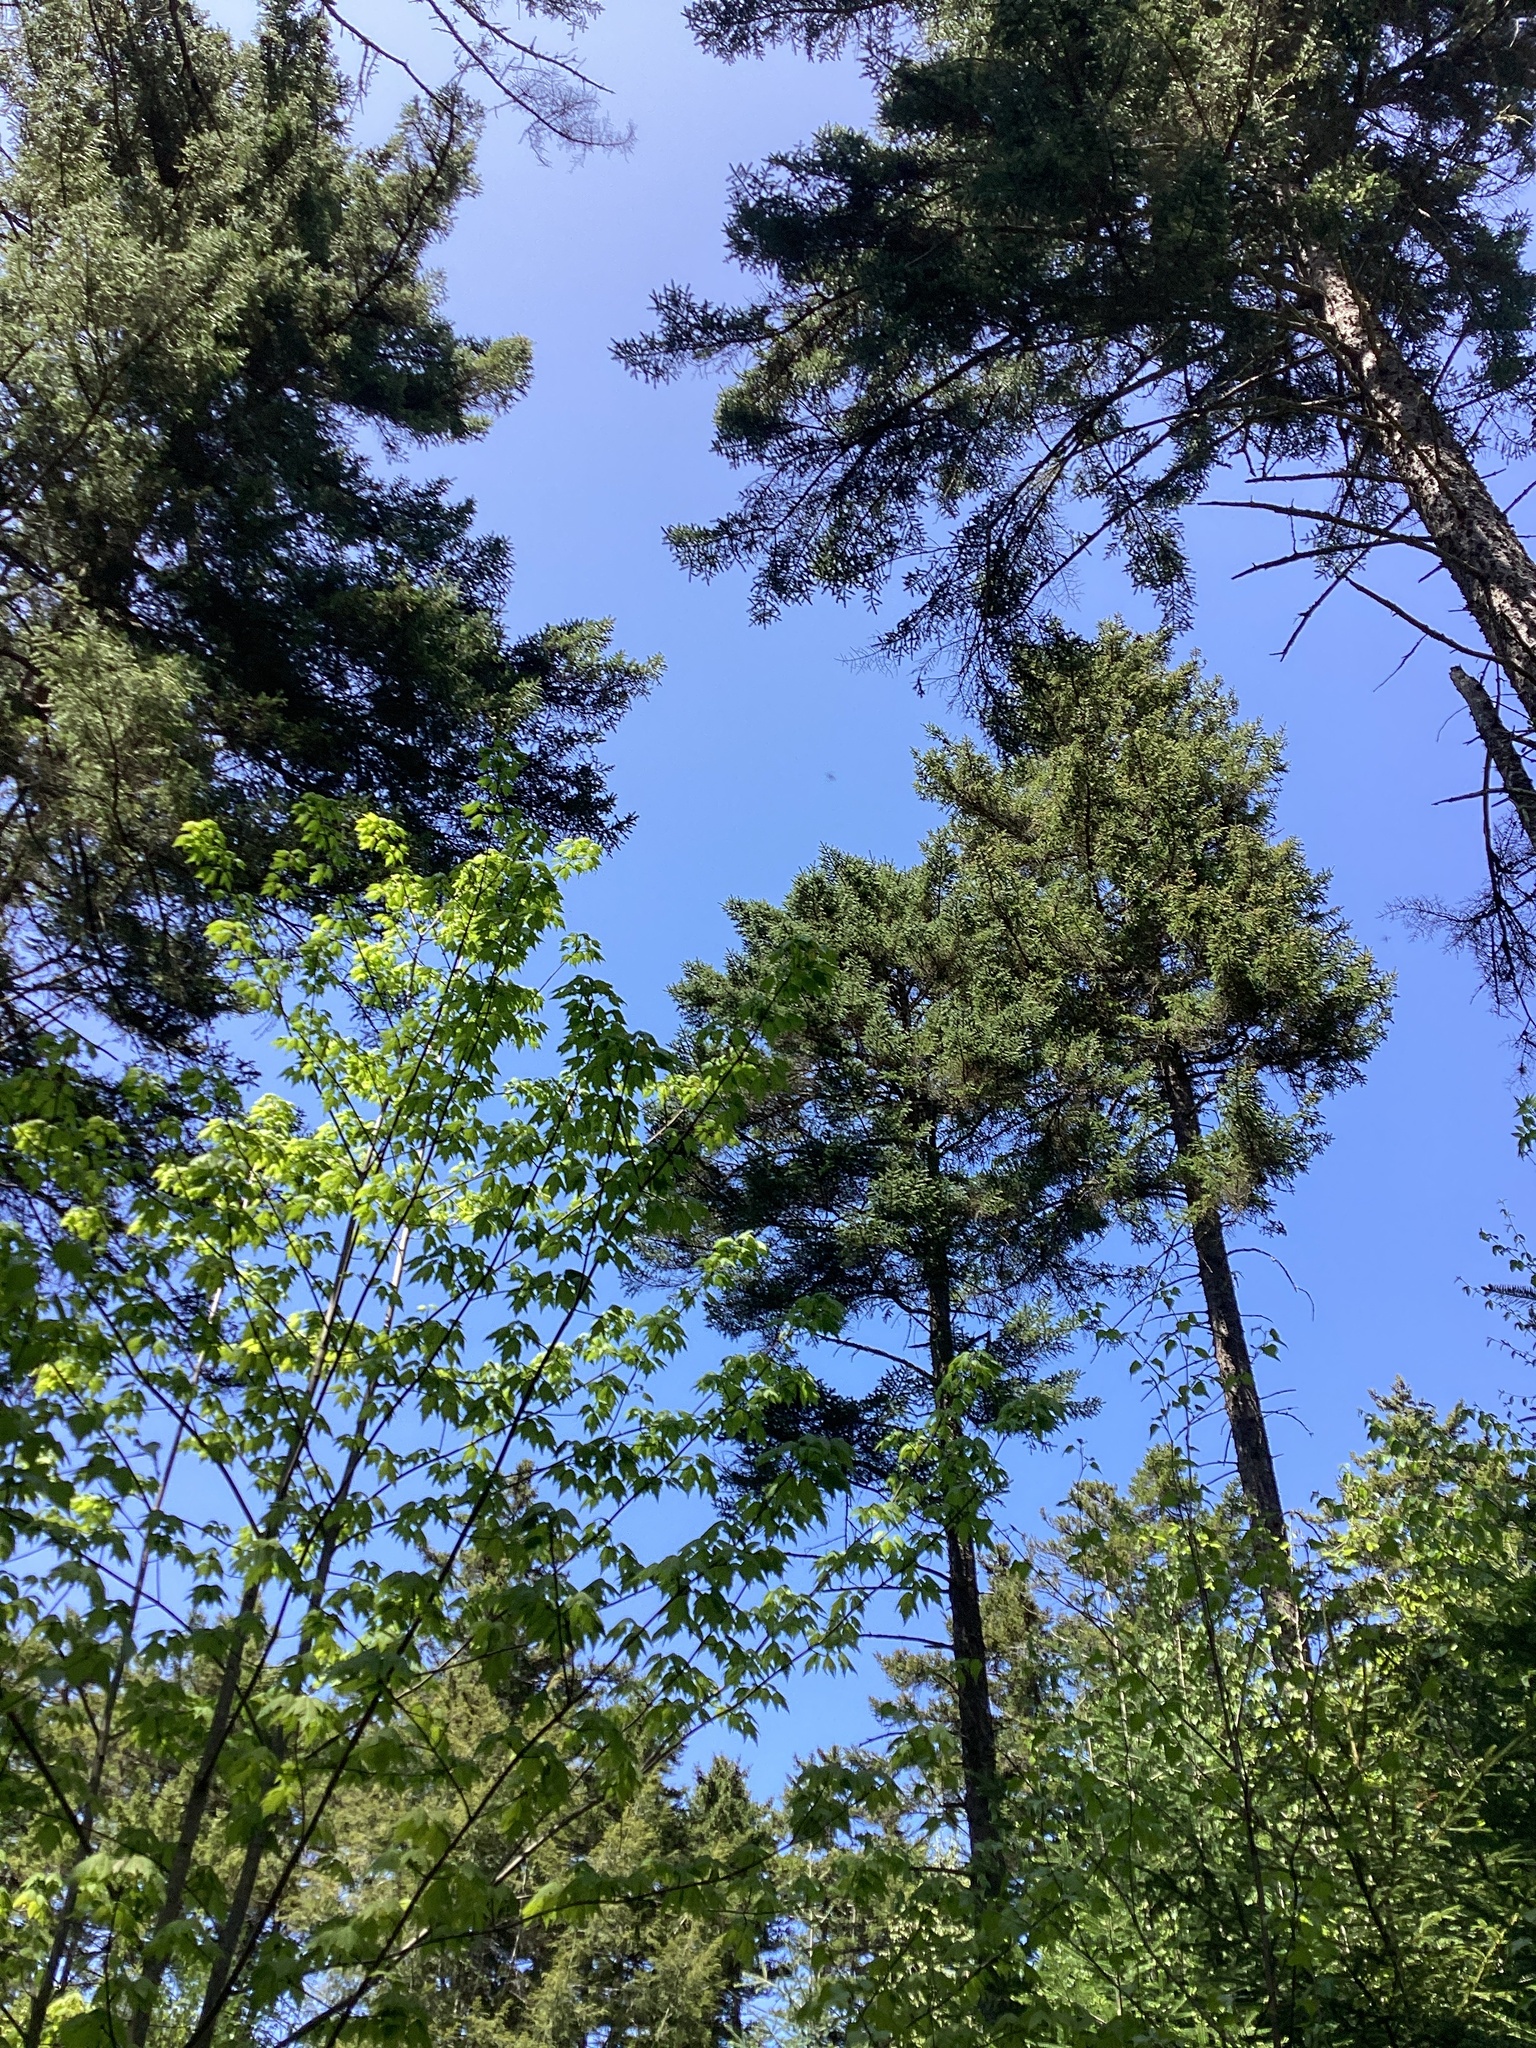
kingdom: Plantae
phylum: Tracheophyta
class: Pinopsida
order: Pinales
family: Pinaceae
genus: Picea
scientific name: Picea rubens
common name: Red spruce
